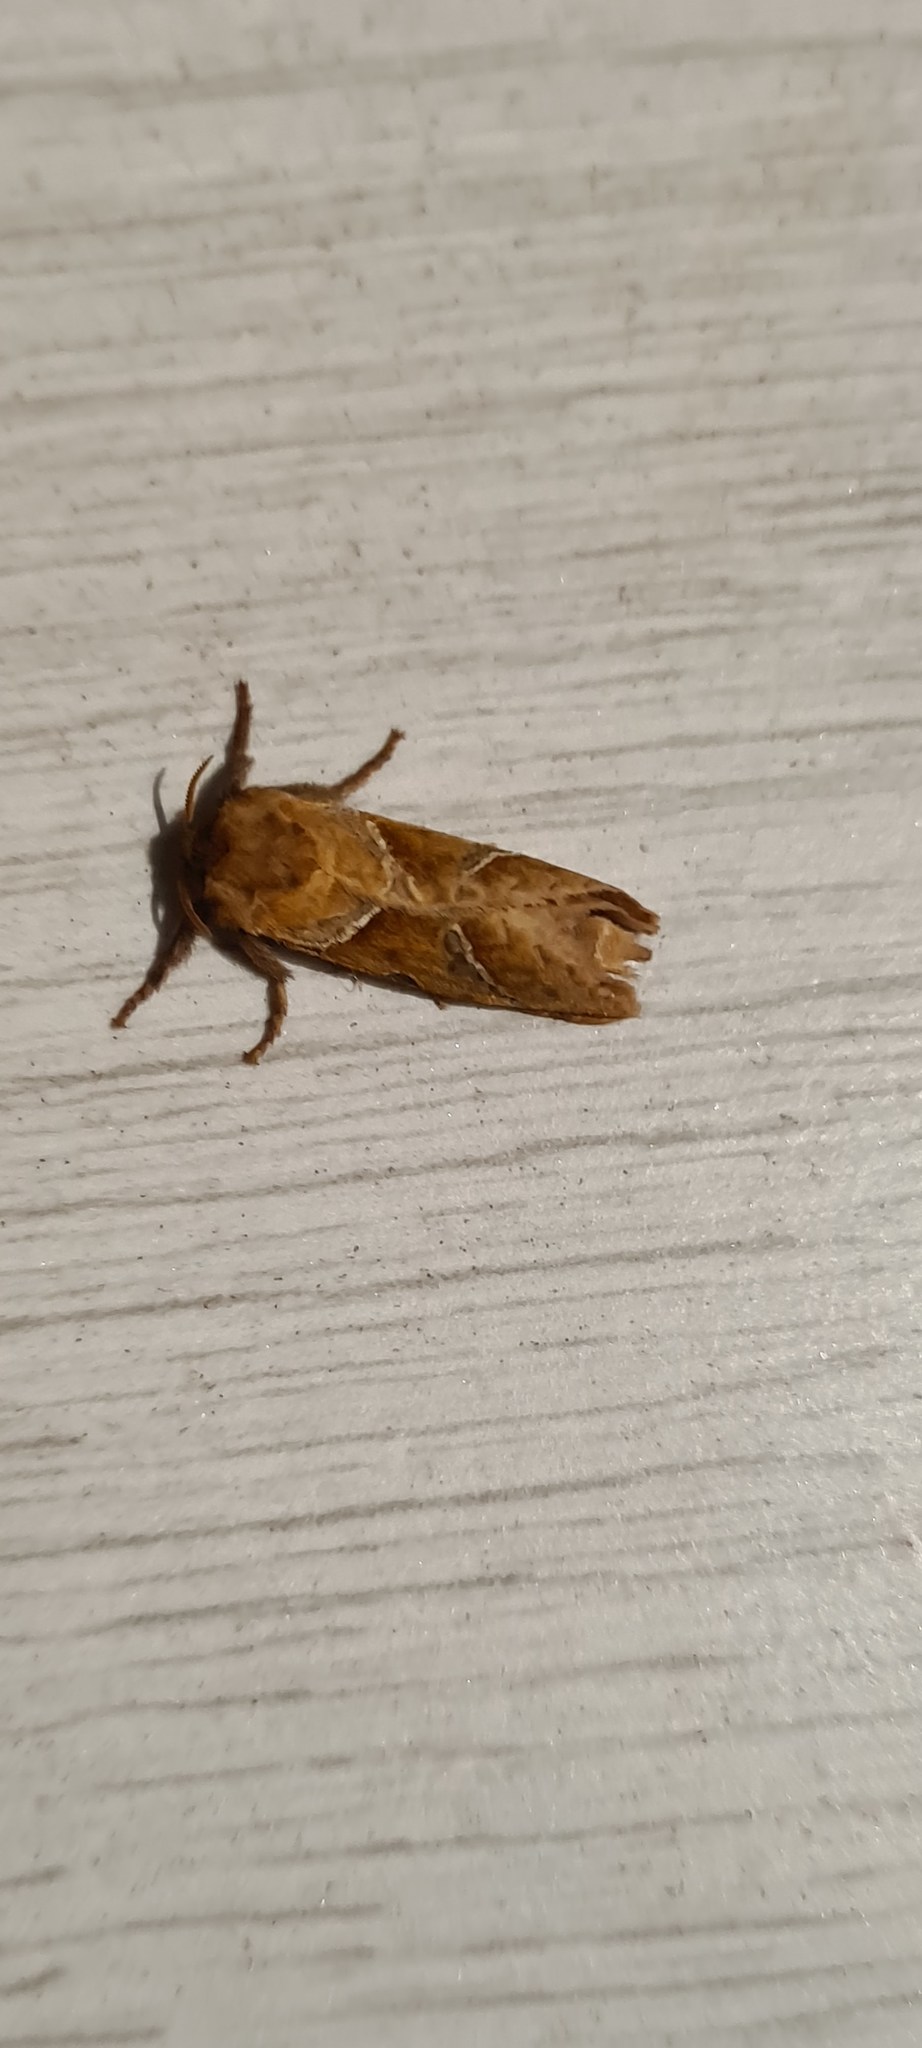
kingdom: Animalia
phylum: Arthropoda
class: Insecta
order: Lepidoptera
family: Hepialidae
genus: Triodia
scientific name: Triodia sylvina
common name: Orange swift
